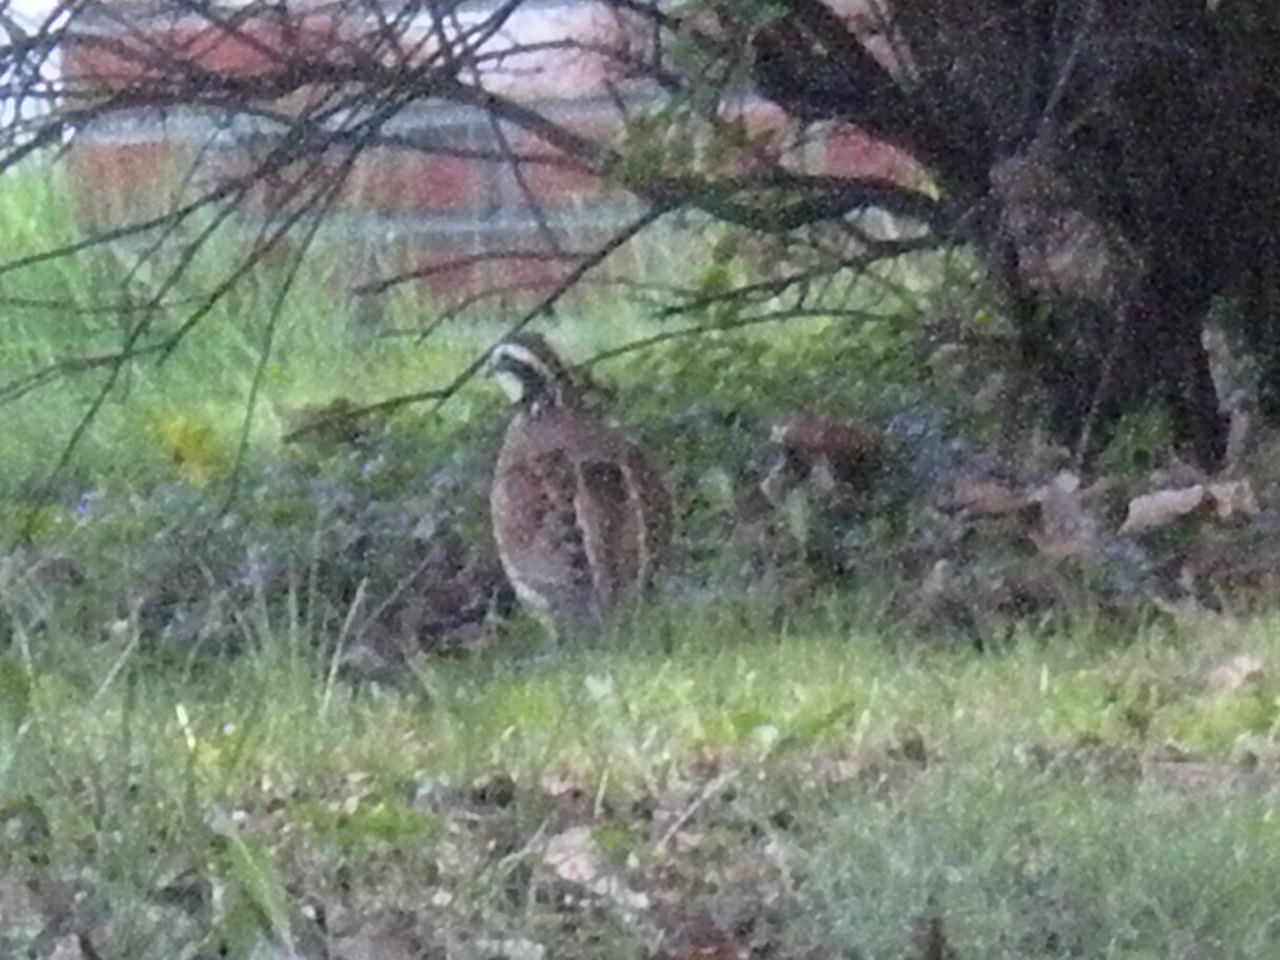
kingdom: Animalia
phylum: Chordata
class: Aves
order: Galliformes
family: Odontophoridae
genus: Colinus
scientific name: Colinus virginianus
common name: Northern bobwhite
